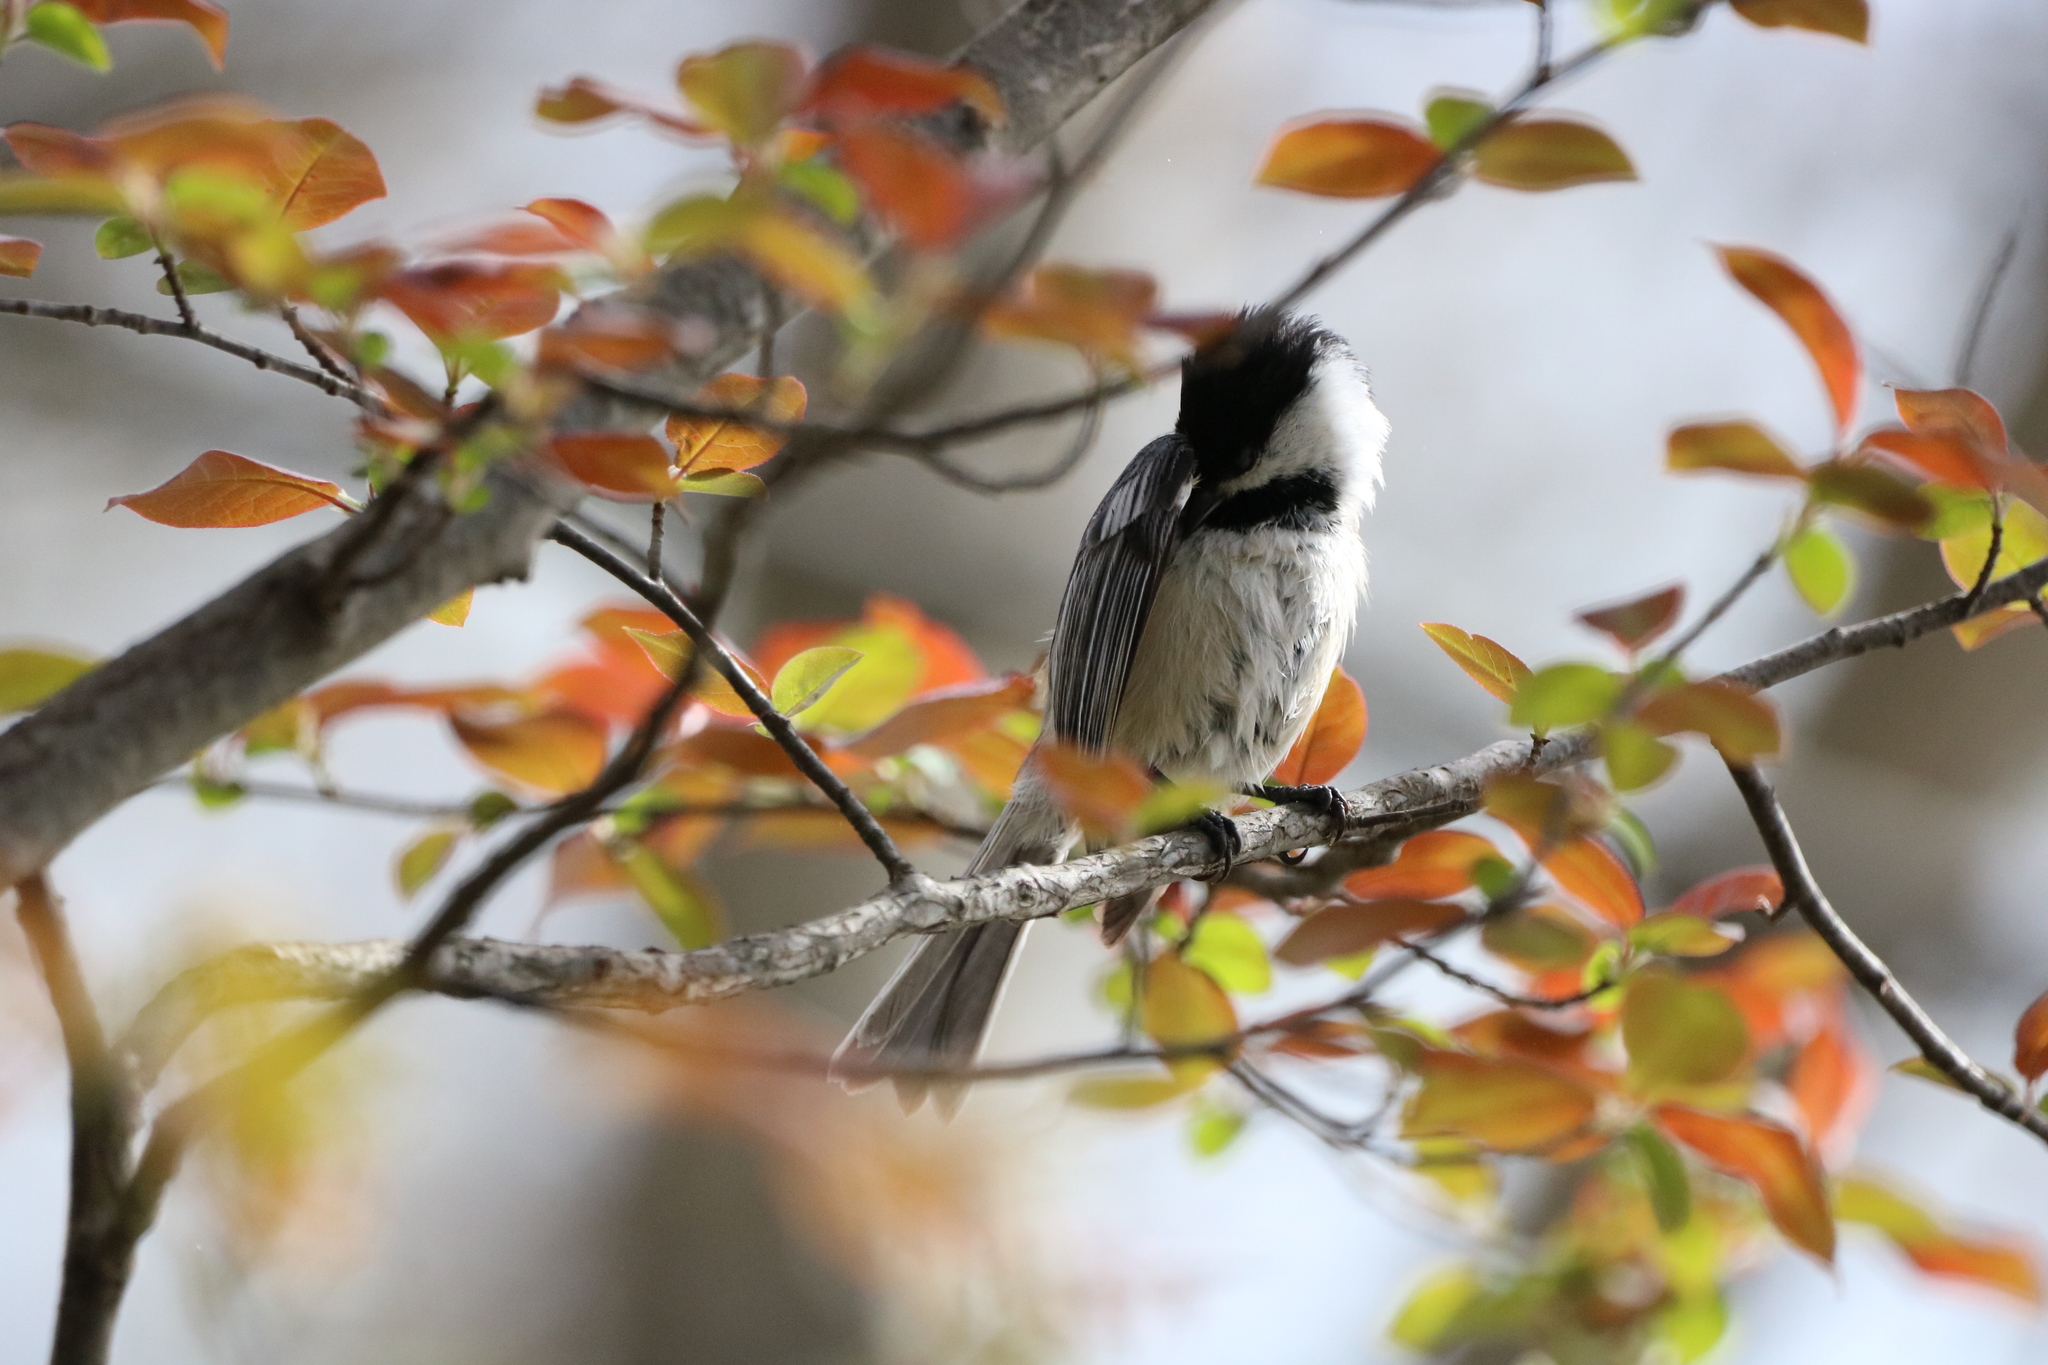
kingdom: Animalia
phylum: Chordata
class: Aves
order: Passeriformes
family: Paridae
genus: Poecile
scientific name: Poecile atricapillus
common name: Black-capped chickadee
